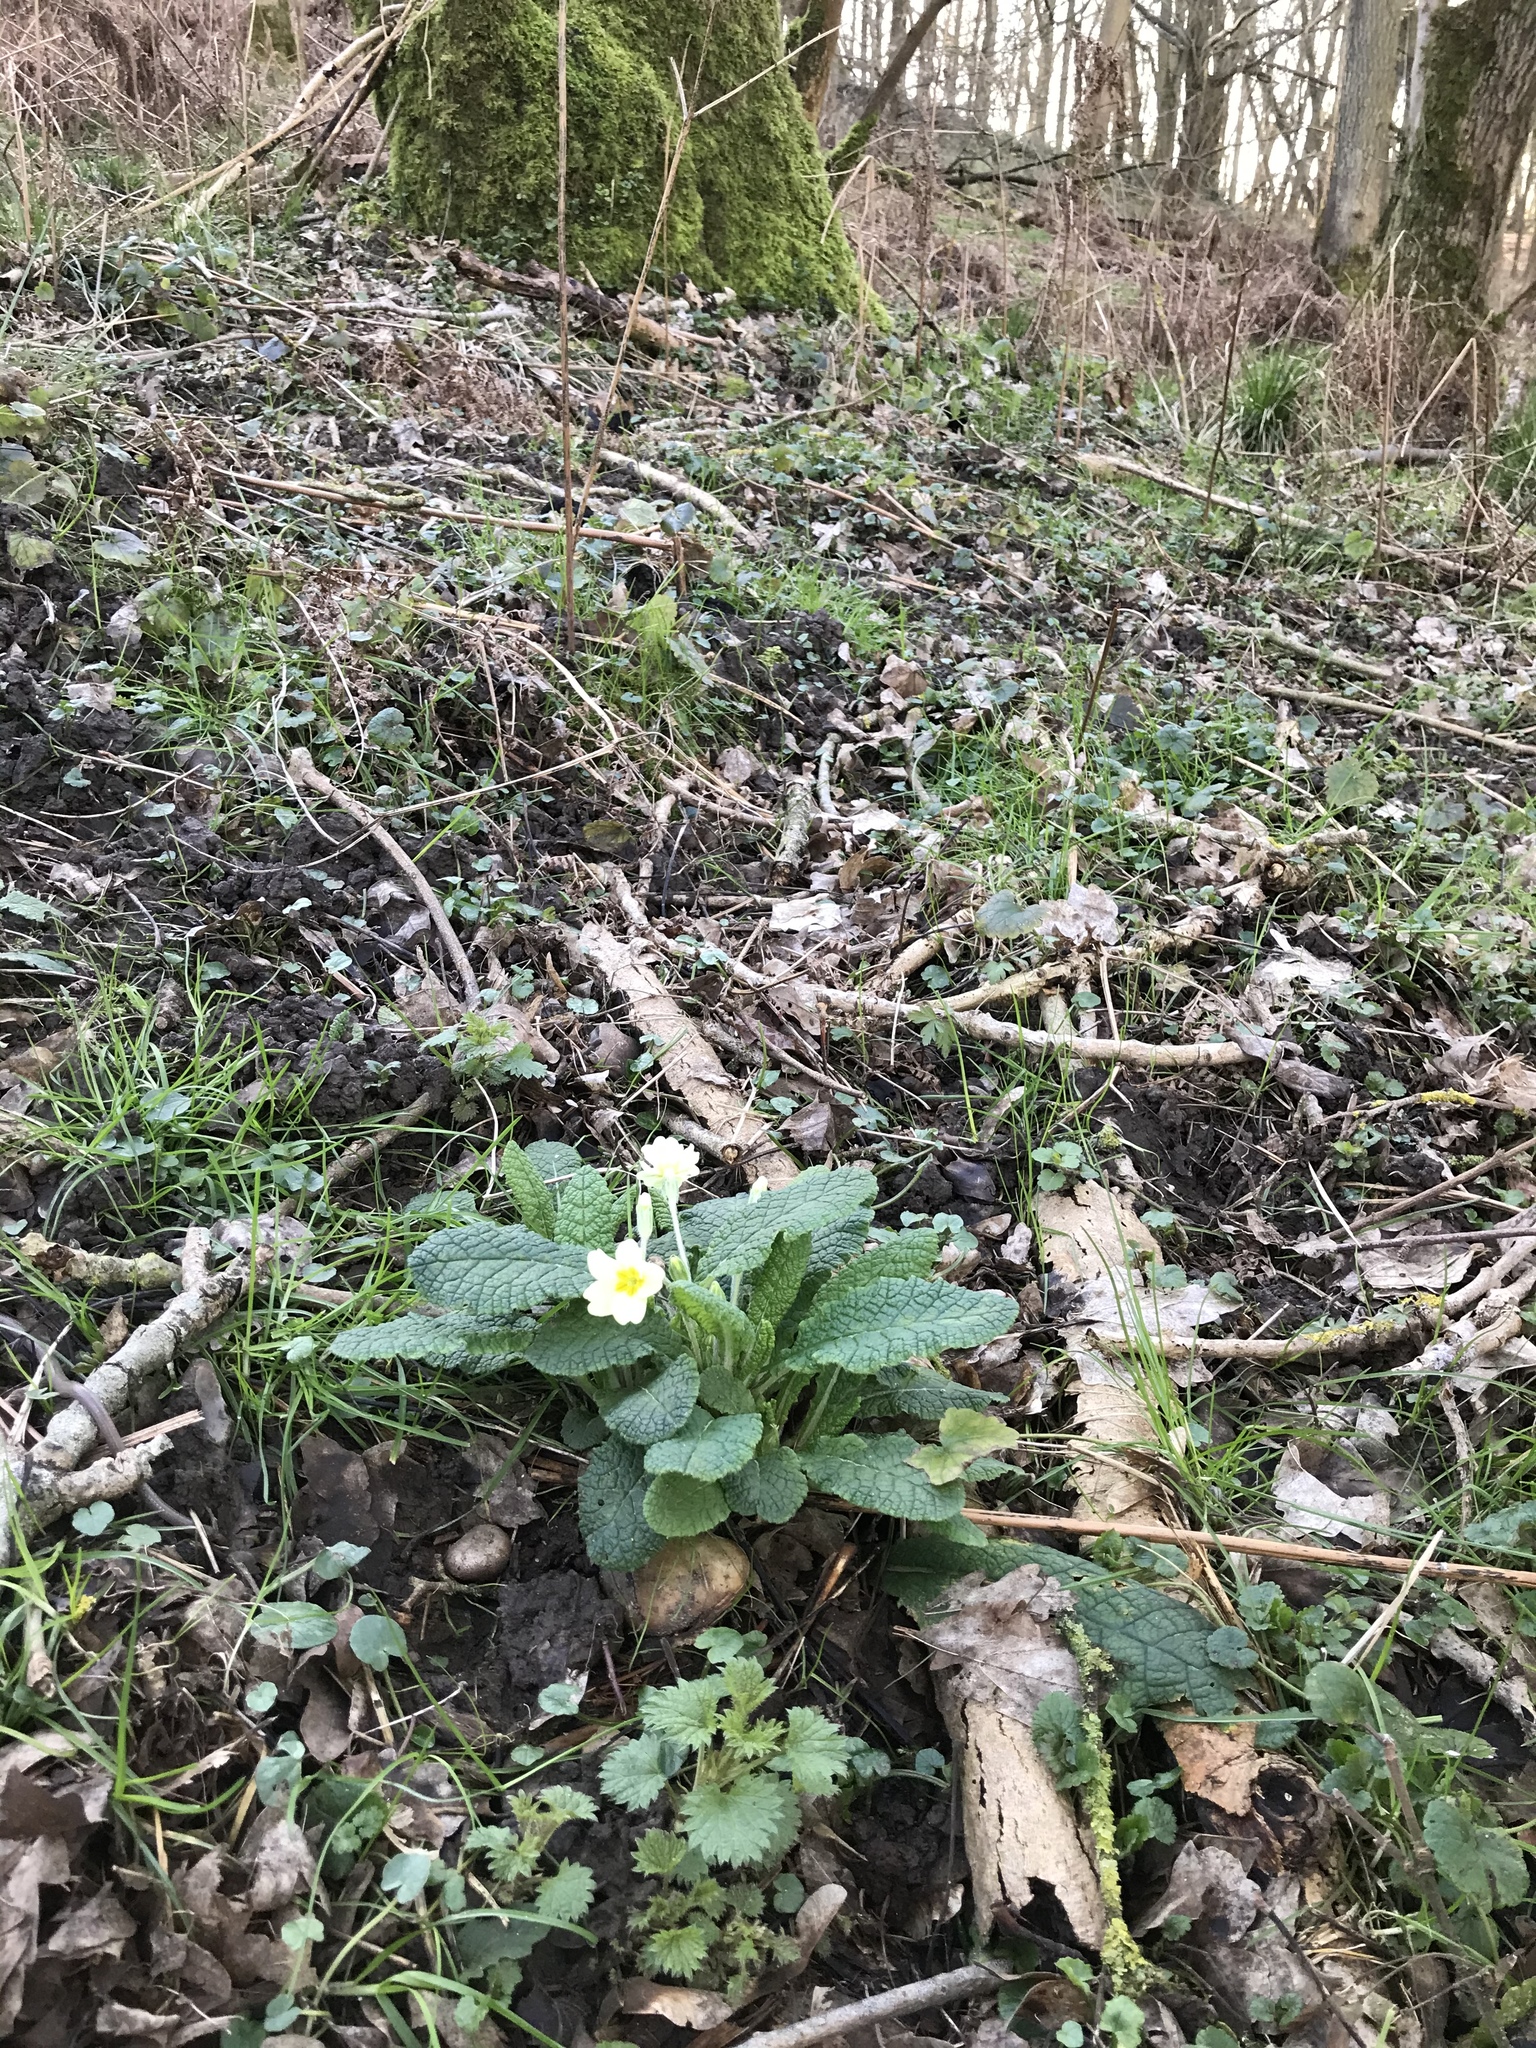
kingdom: Plantae
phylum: Tracheophyta
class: Magnoliopsida
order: Ericales
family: Primulaceae
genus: Primula
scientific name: Primula vulgaris
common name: Primrose
